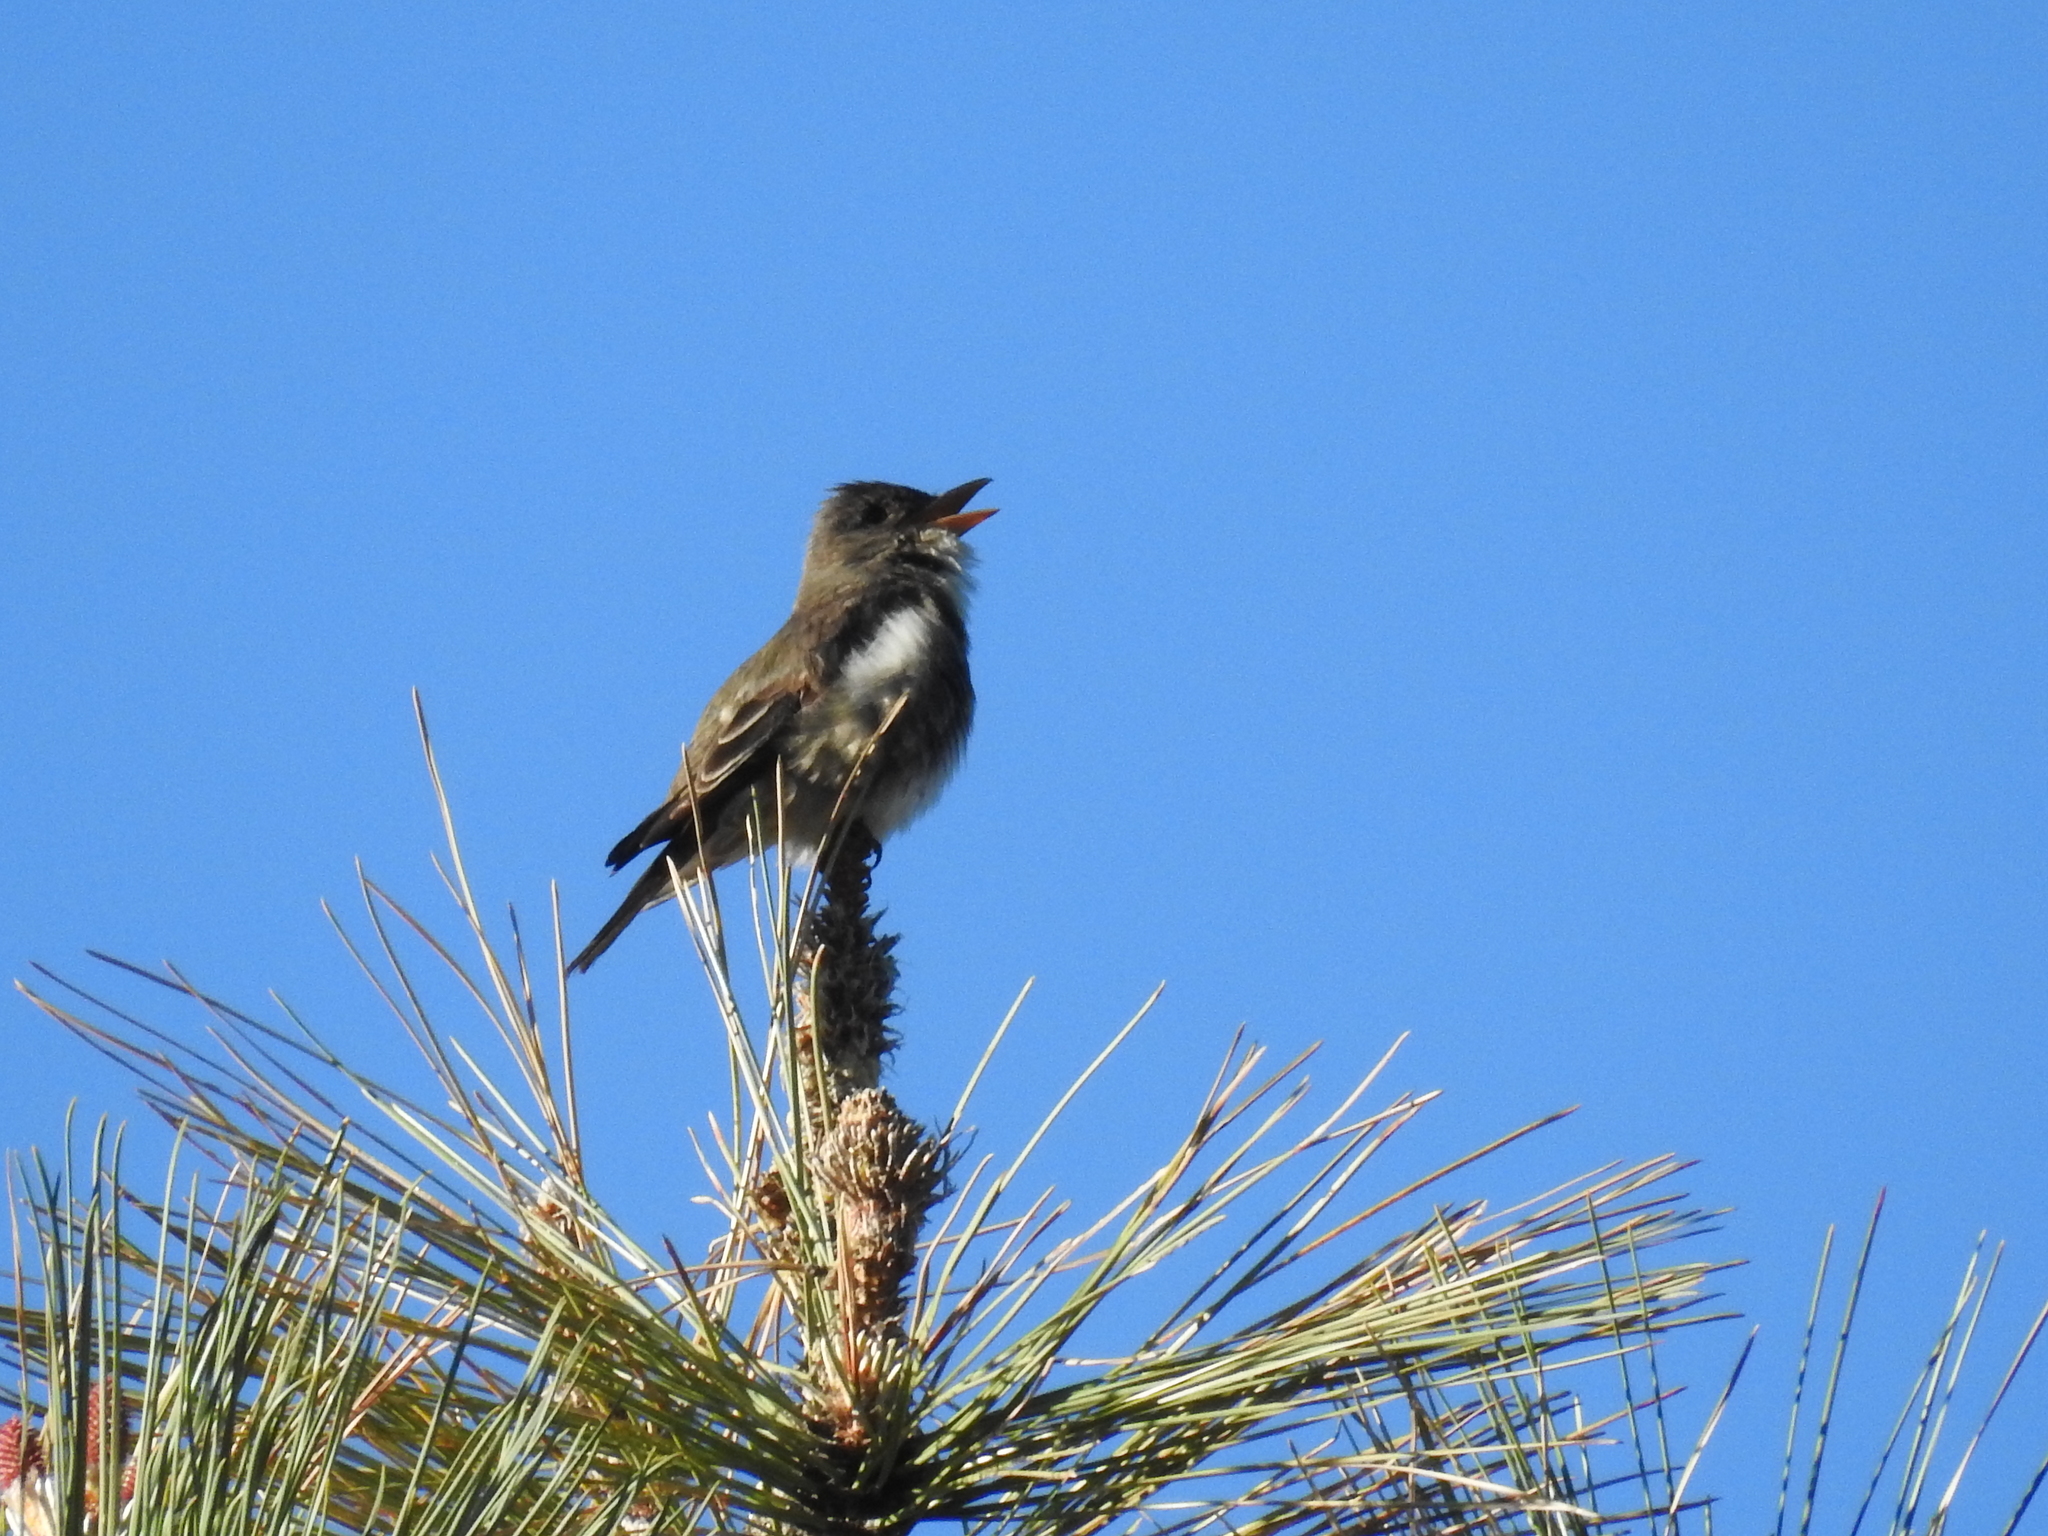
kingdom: Animalia
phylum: Chordata
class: Aves
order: Passeriformes
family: Tyrannidae
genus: Contopus
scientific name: Contopus cooperi
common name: Olive-sided flycatcher
